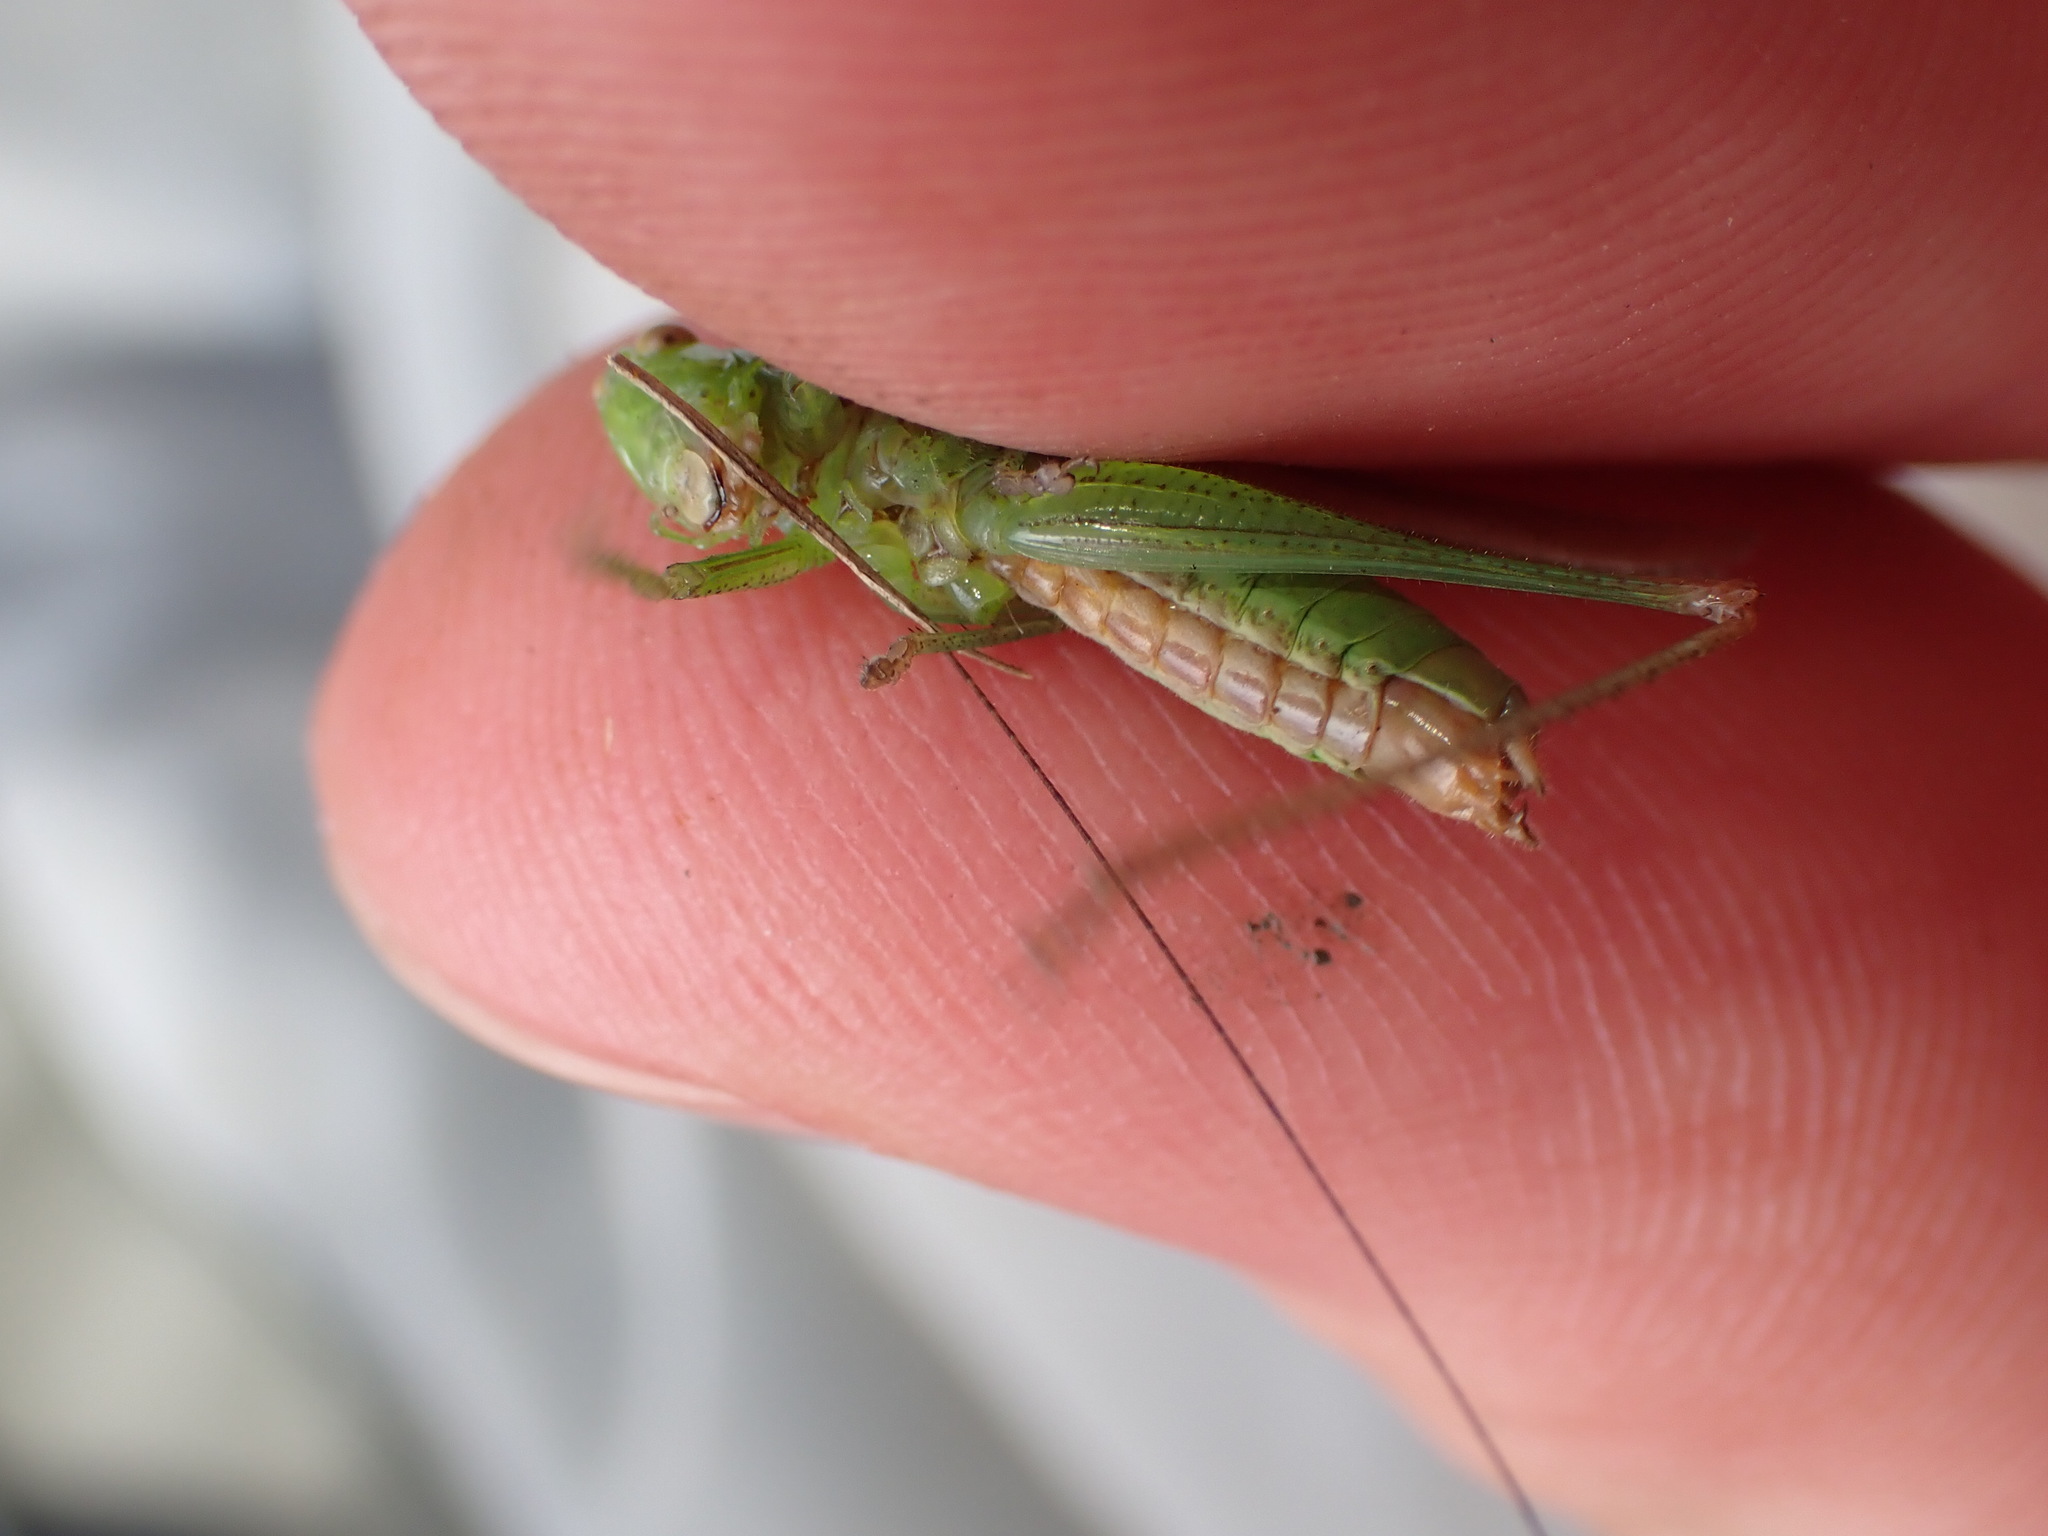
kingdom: Animalia
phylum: Arthropoda
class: Insecta
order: Orthoptera
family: Tettigoniidae
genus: Conocephalus
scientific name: Conocephalus fuscus
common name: Long-winged conehead
